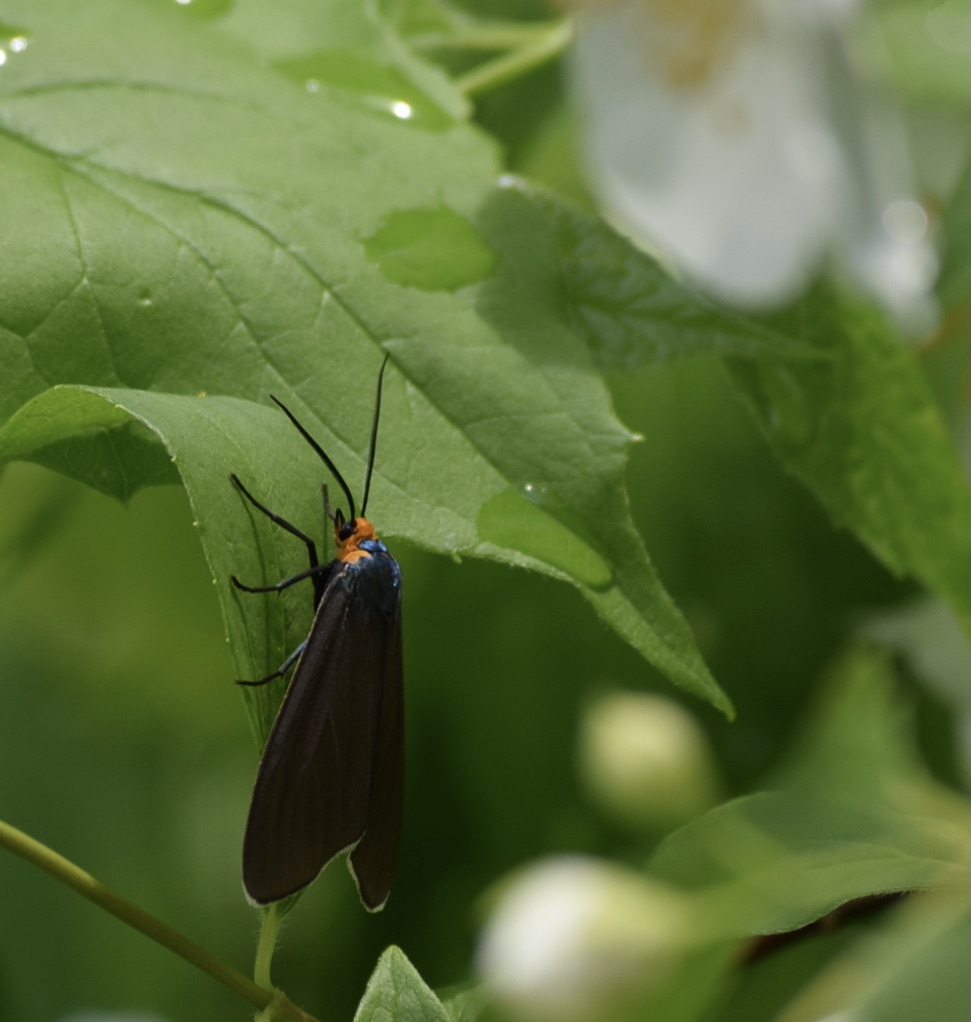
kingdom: Animalia
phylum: Arthropoda
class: Insecta
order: Lepidoptera
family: Erebidae
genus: Ctenucha
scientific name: Ctenucha virginica
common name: Virginia ctenucha moth
